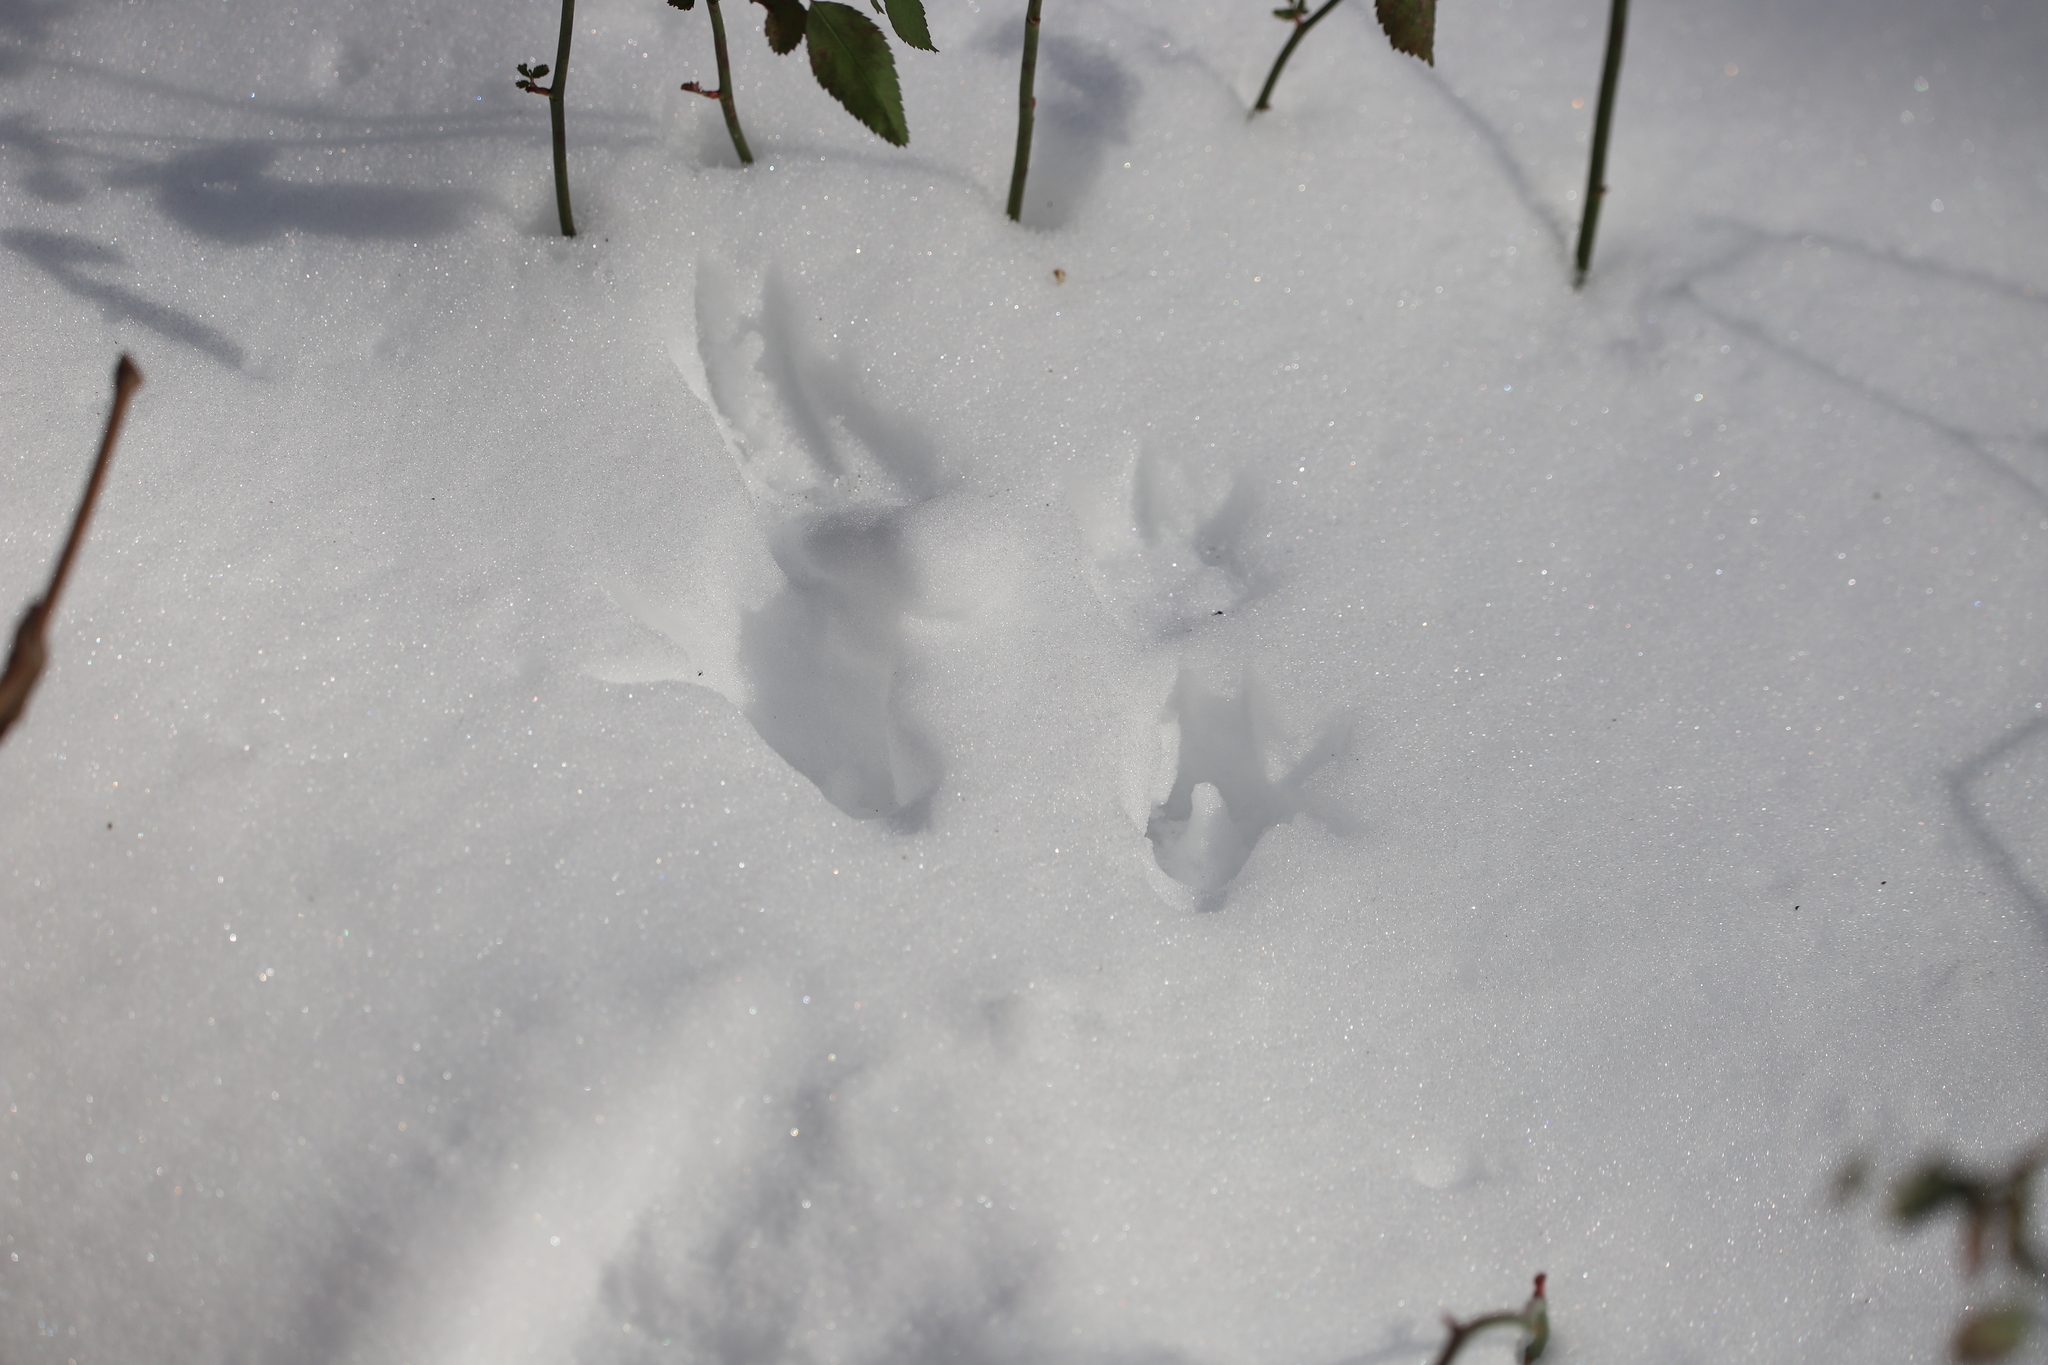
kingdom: Animalia
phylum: Chordata
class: Mammalia
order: Carnivora
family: Procyonidae
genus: Procyon
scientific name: Procyon lotor
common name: Raccoon
